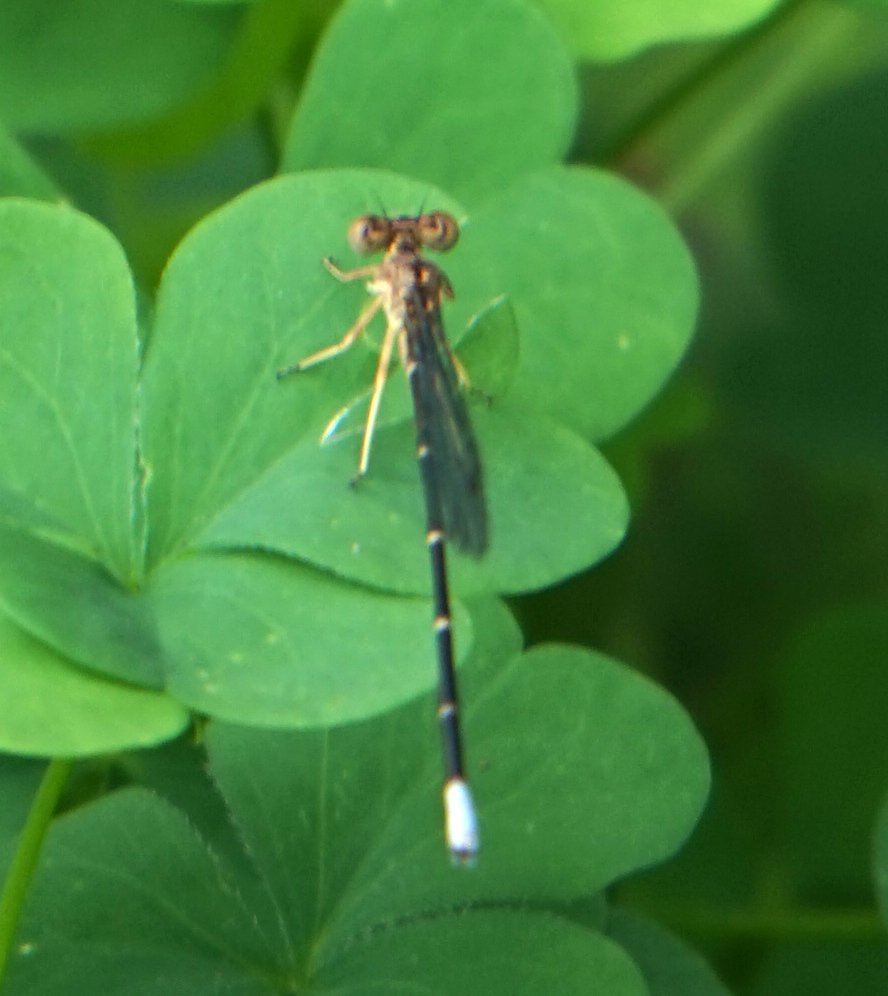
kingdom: Animalia
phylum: Arthropoda
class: Insecta
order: Odonata
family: Coenagrionidae
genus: Argia
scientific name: Argia apicalis
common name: Blue-fronted dancer
